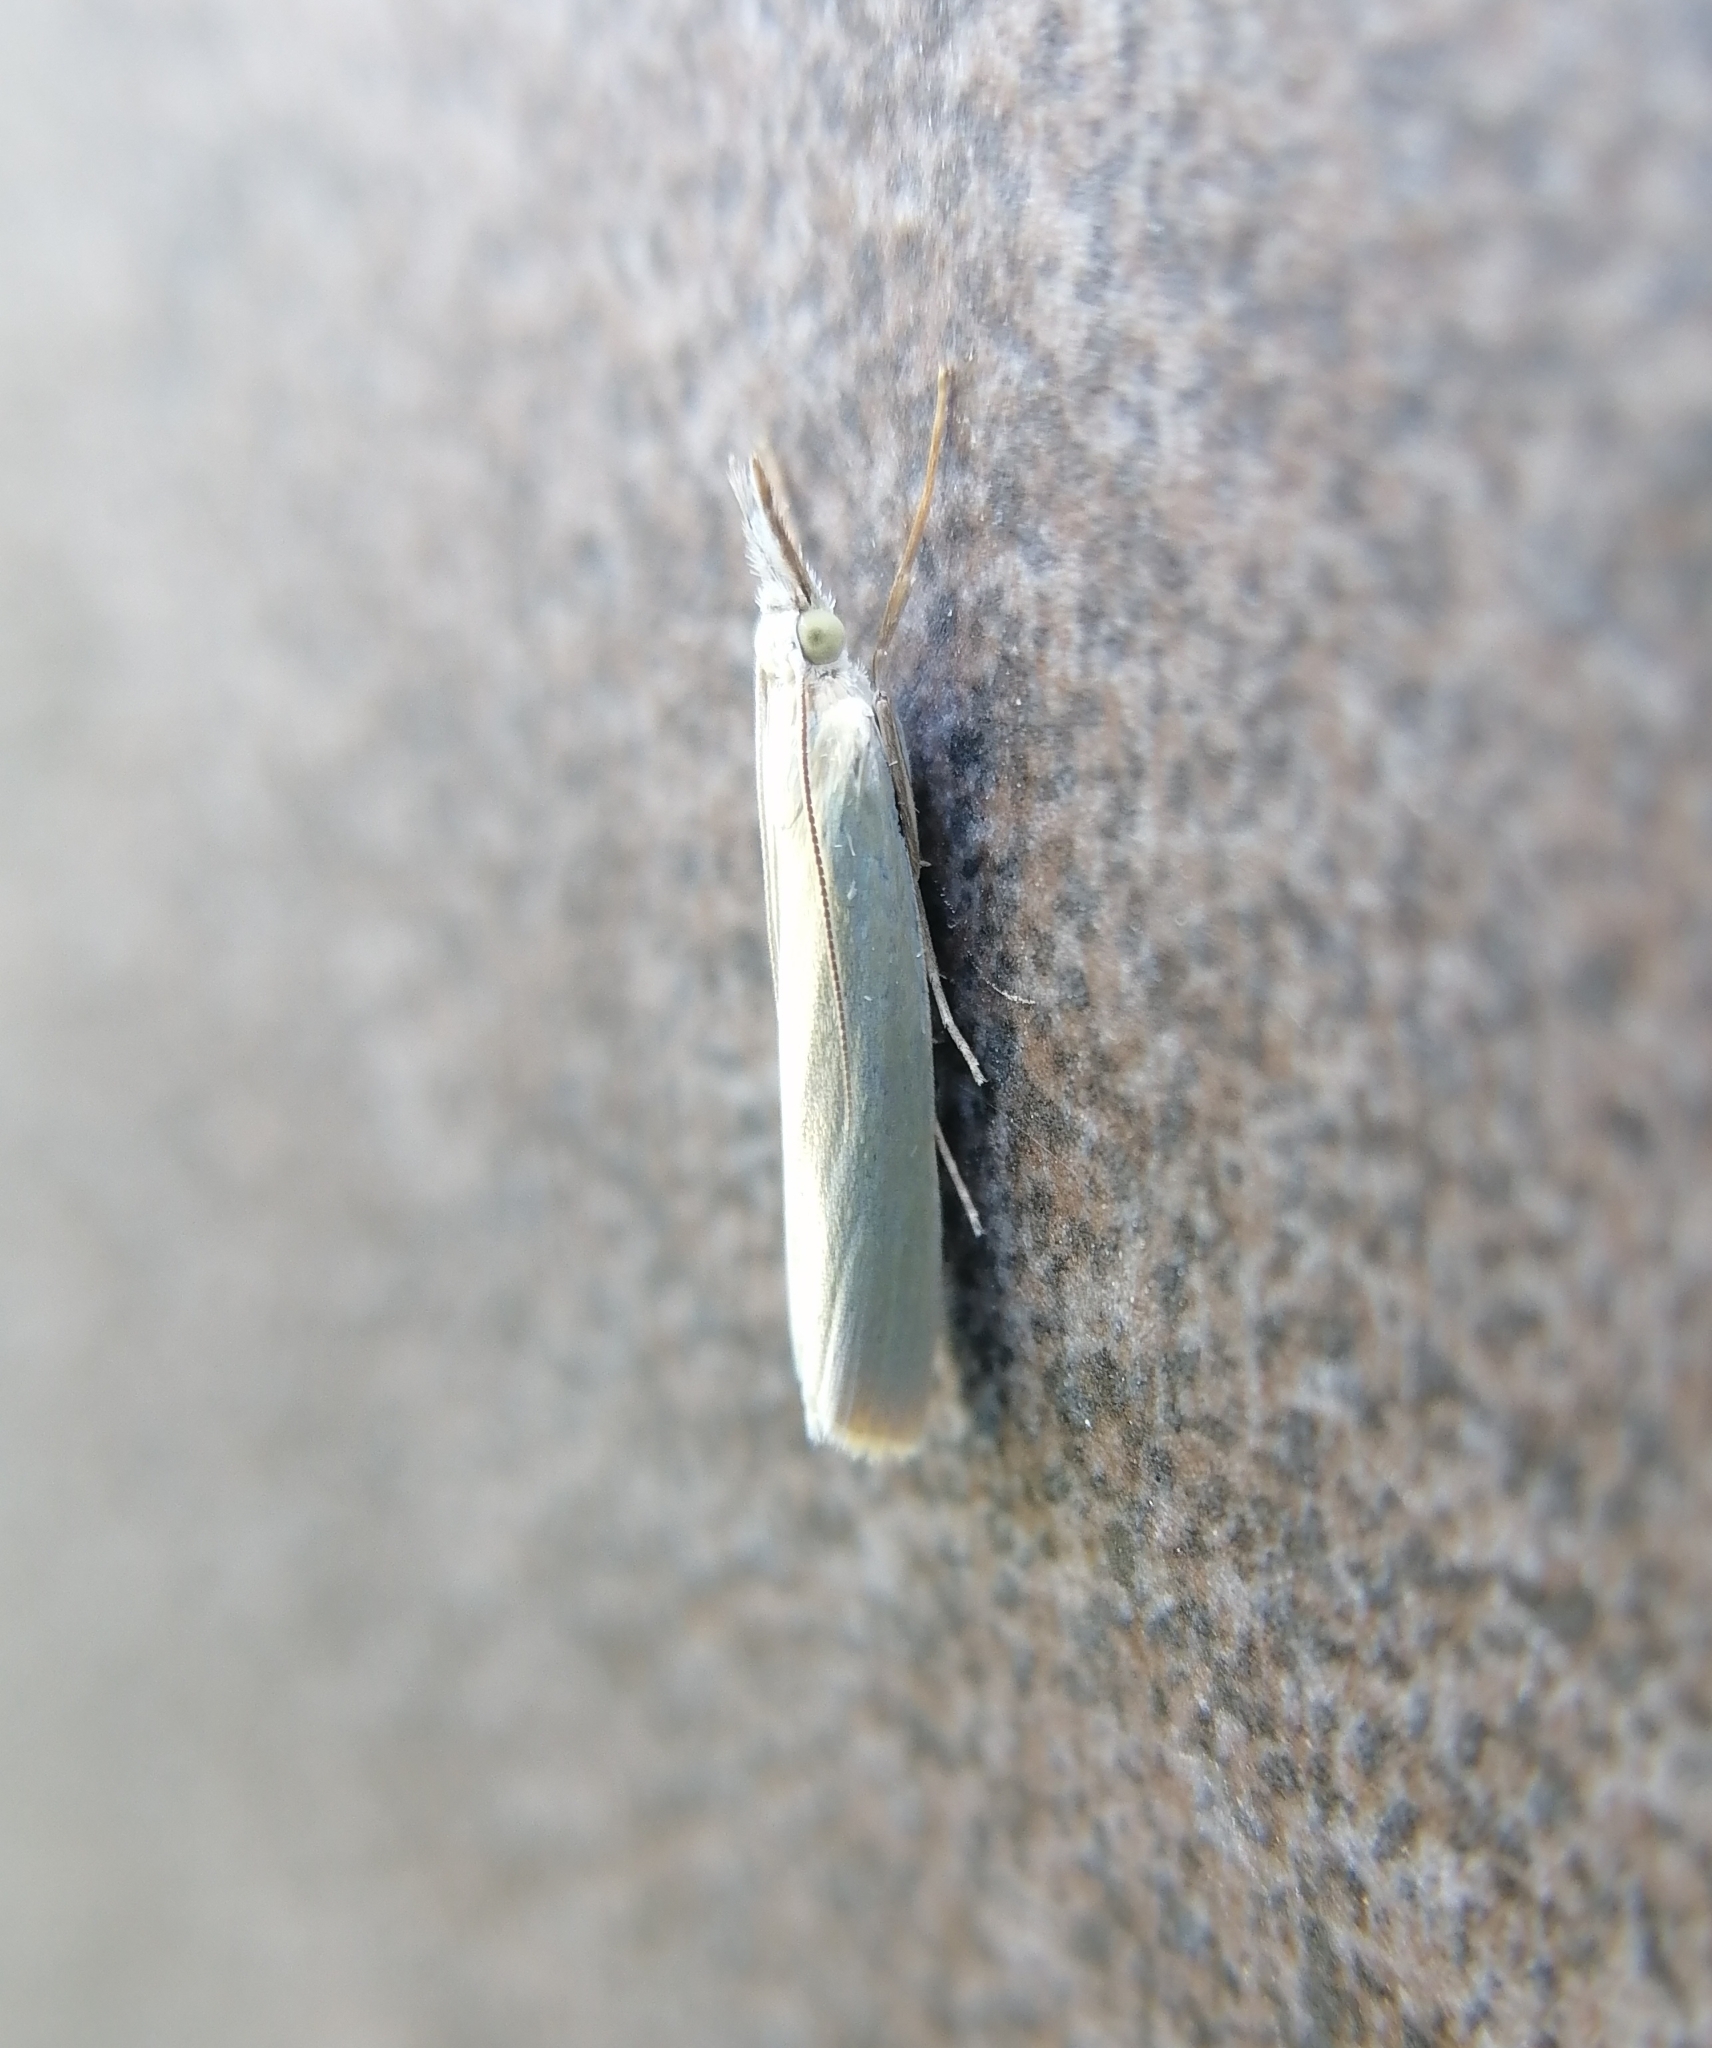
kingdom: Animalia
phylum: Arthropoda
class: Insecta
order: Lepidoptera
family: Crambidae
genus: Crambus
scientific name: Crambus perlellus
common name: Yellow satin veneer
